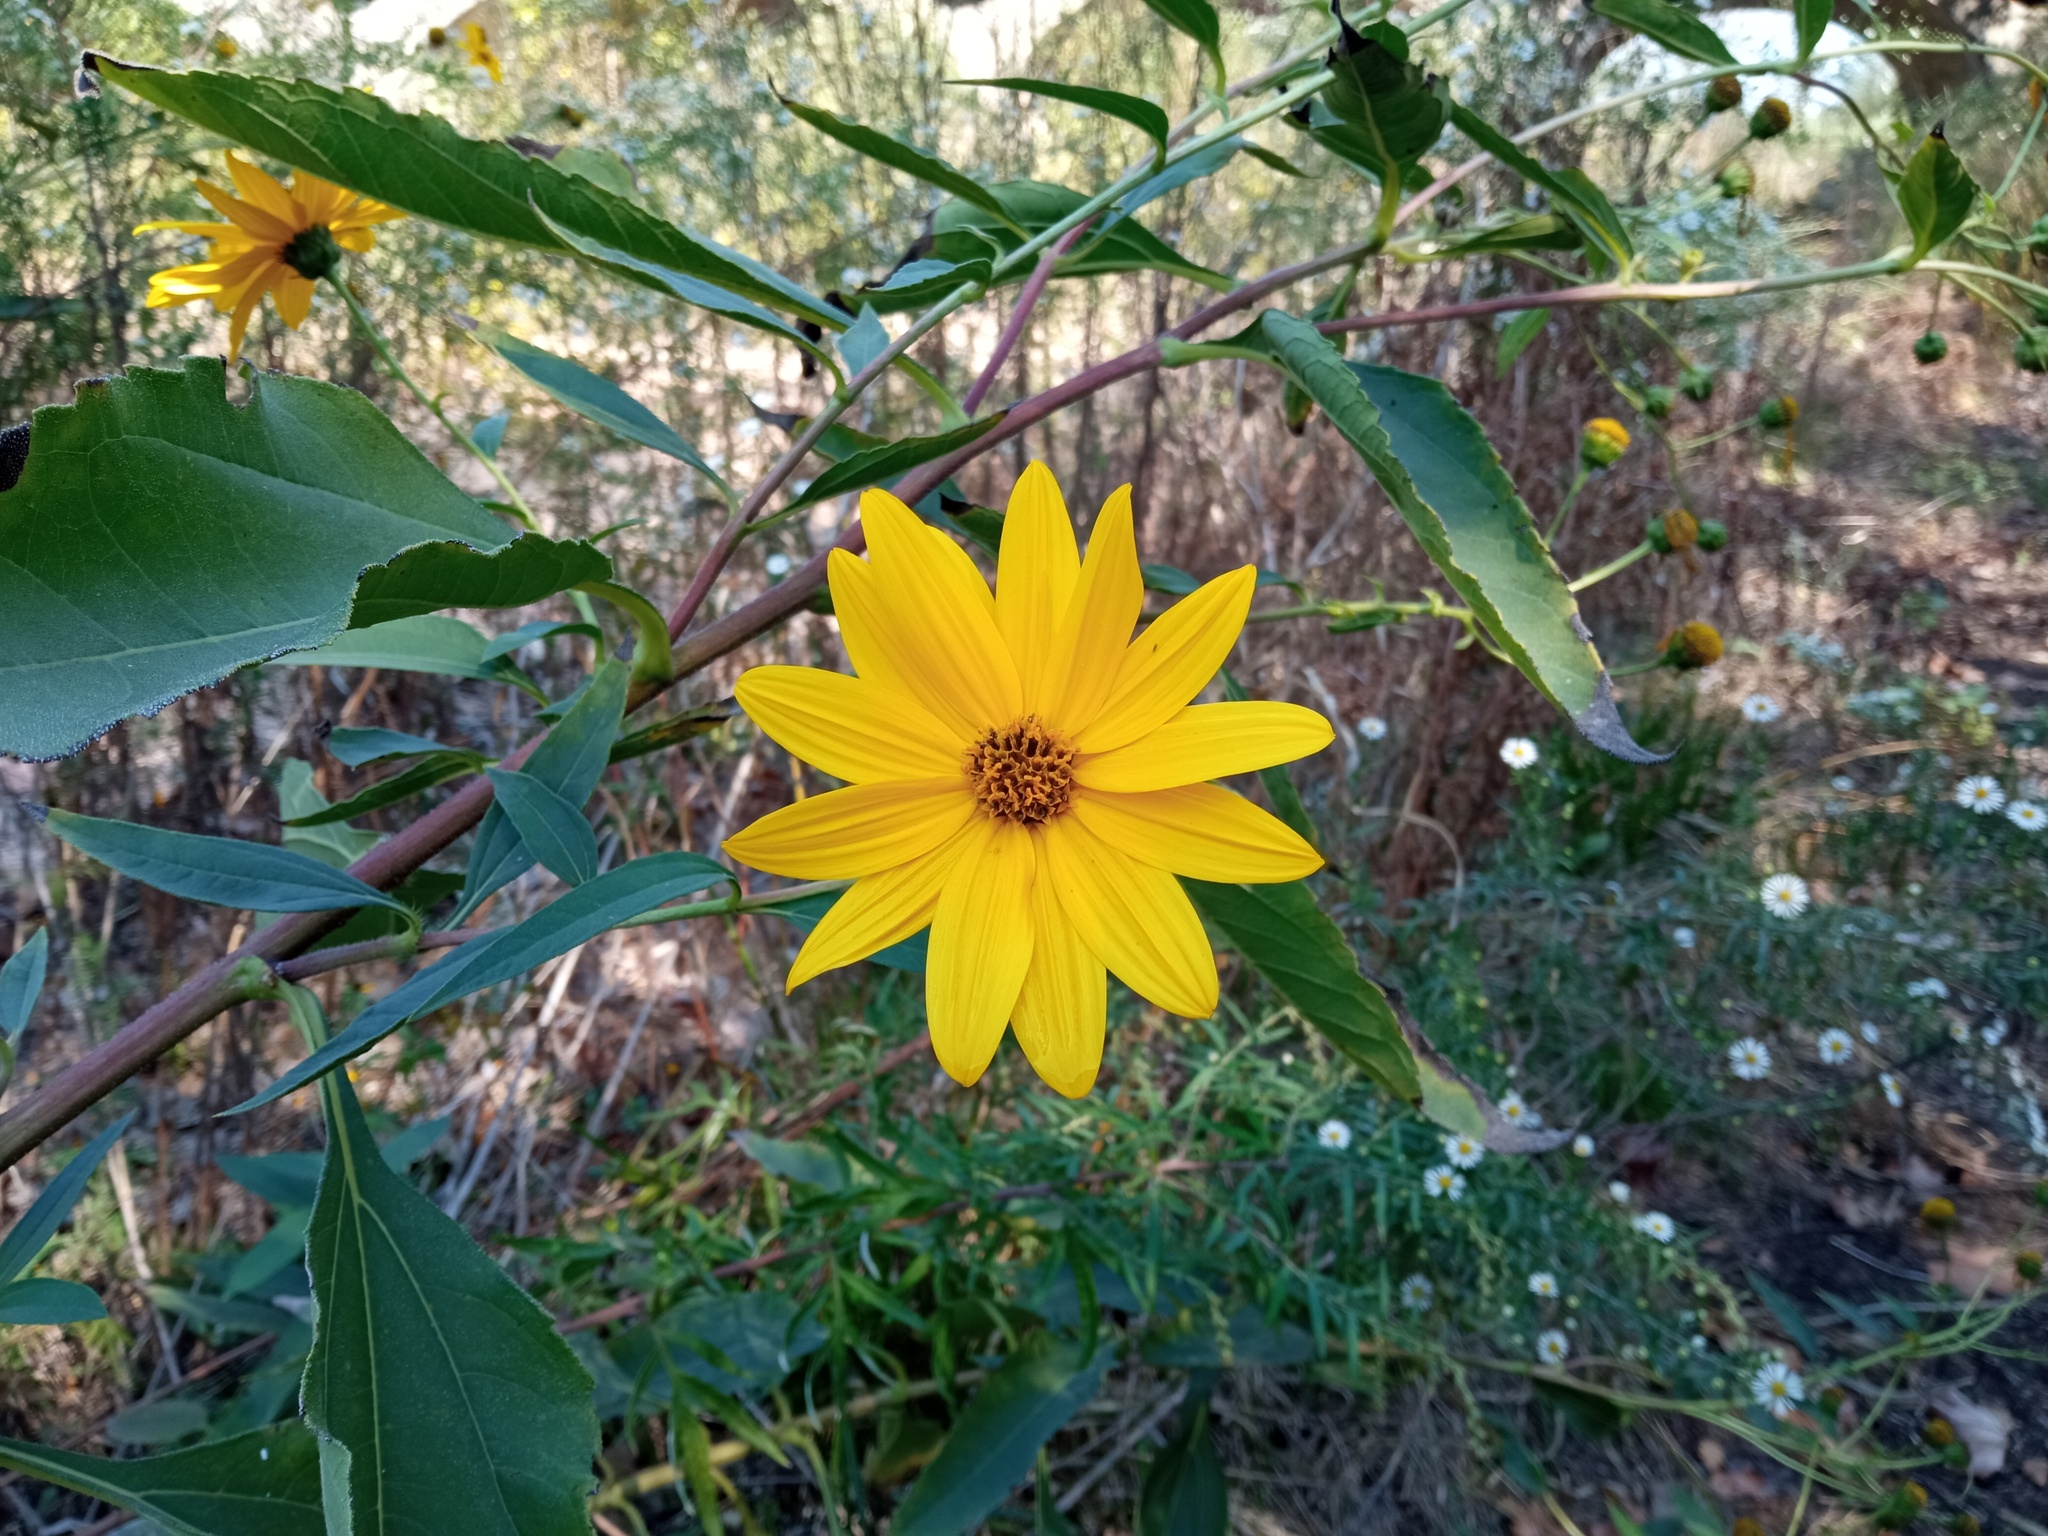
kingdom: Plantae
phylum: Tracheophyta
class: Magnoliopsida
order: Asterales
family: Asteraceae
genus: Helianthus
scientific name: Helianthus tuberosus
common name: Jerusalem artichoke
